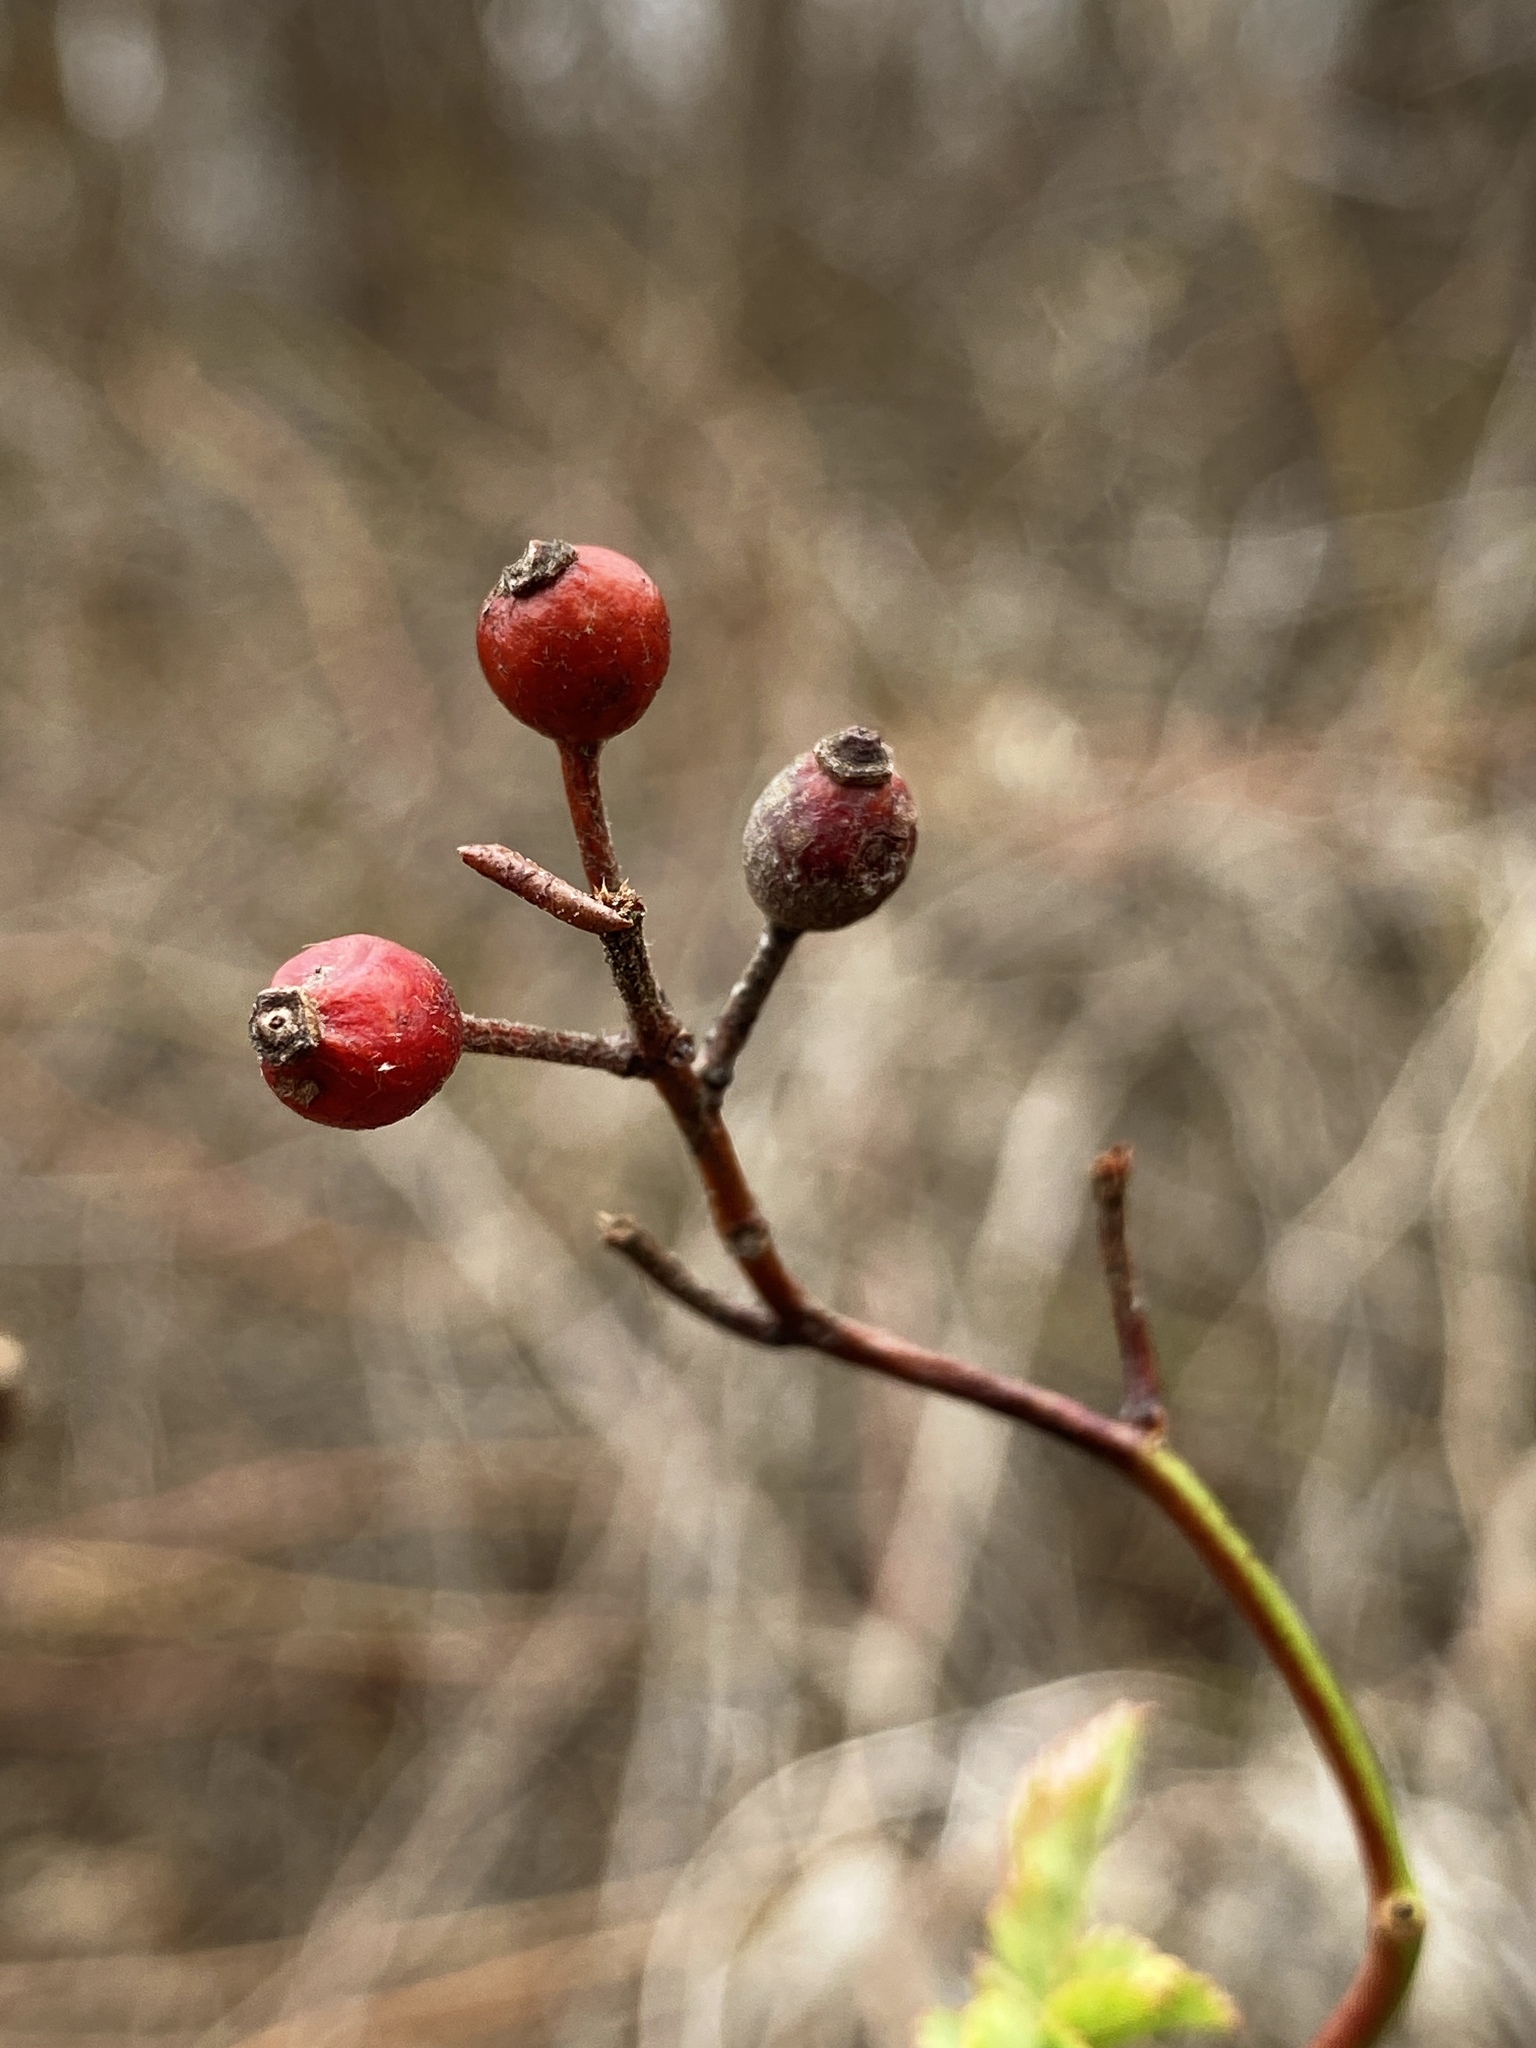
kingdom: Plantae
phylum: Tracheophyta
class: Magnoliopsida
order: Rosales
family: Rosaceae
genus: Rosa
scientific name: Rosa multiflora
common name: Multiflora rose
